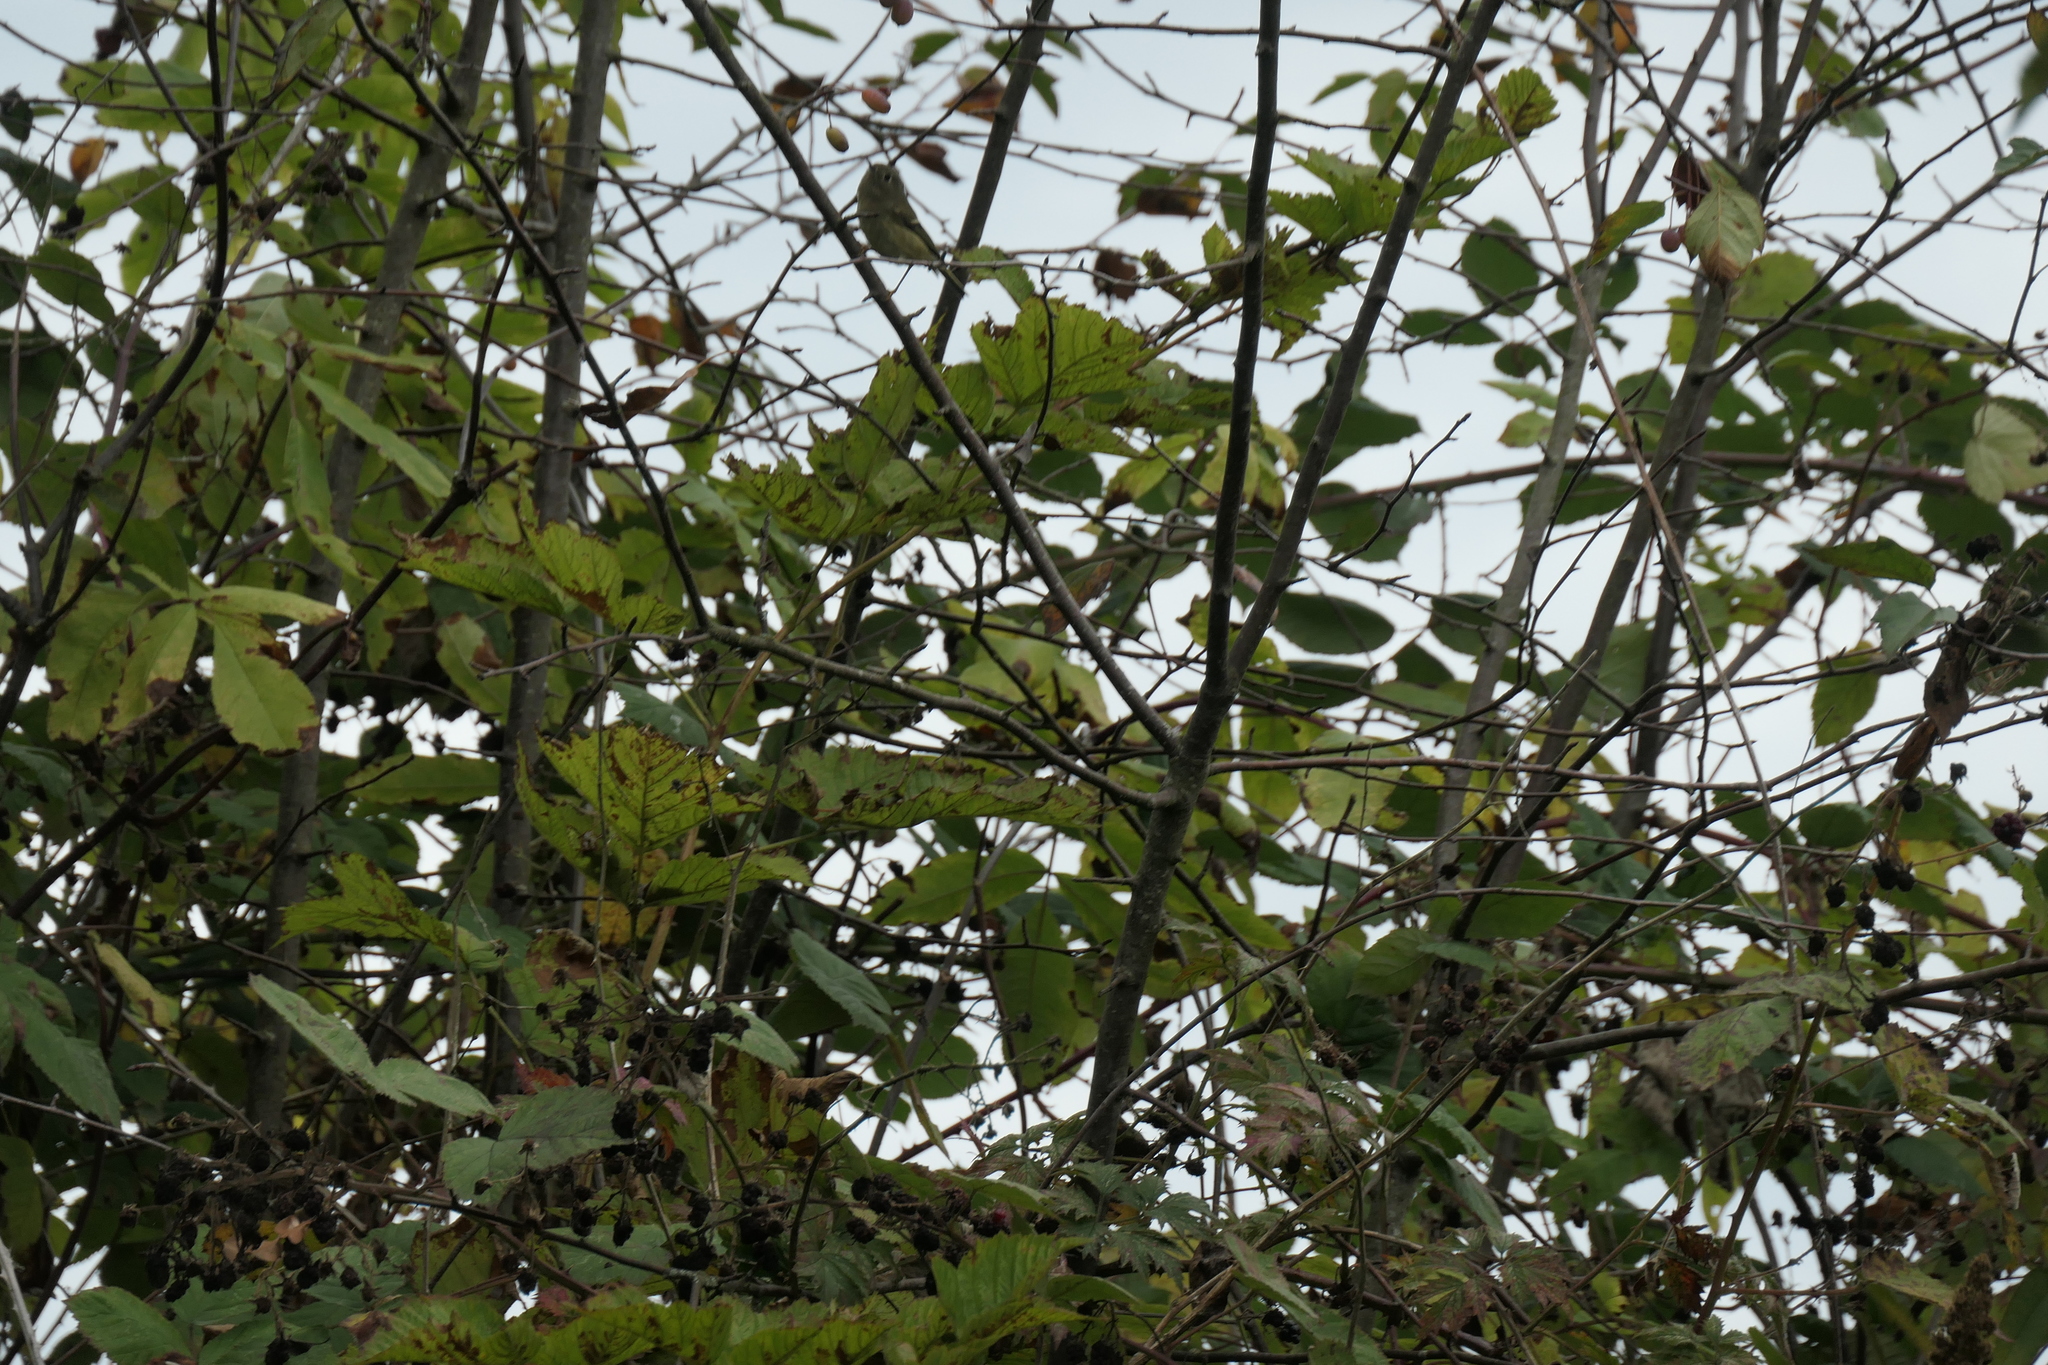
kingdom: Animalia
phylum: Chordata
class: Aves
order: Passeriformes
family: Regulidae
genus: Regulus
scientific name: Regulus calendula
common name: Ruby-crowned kinglet
